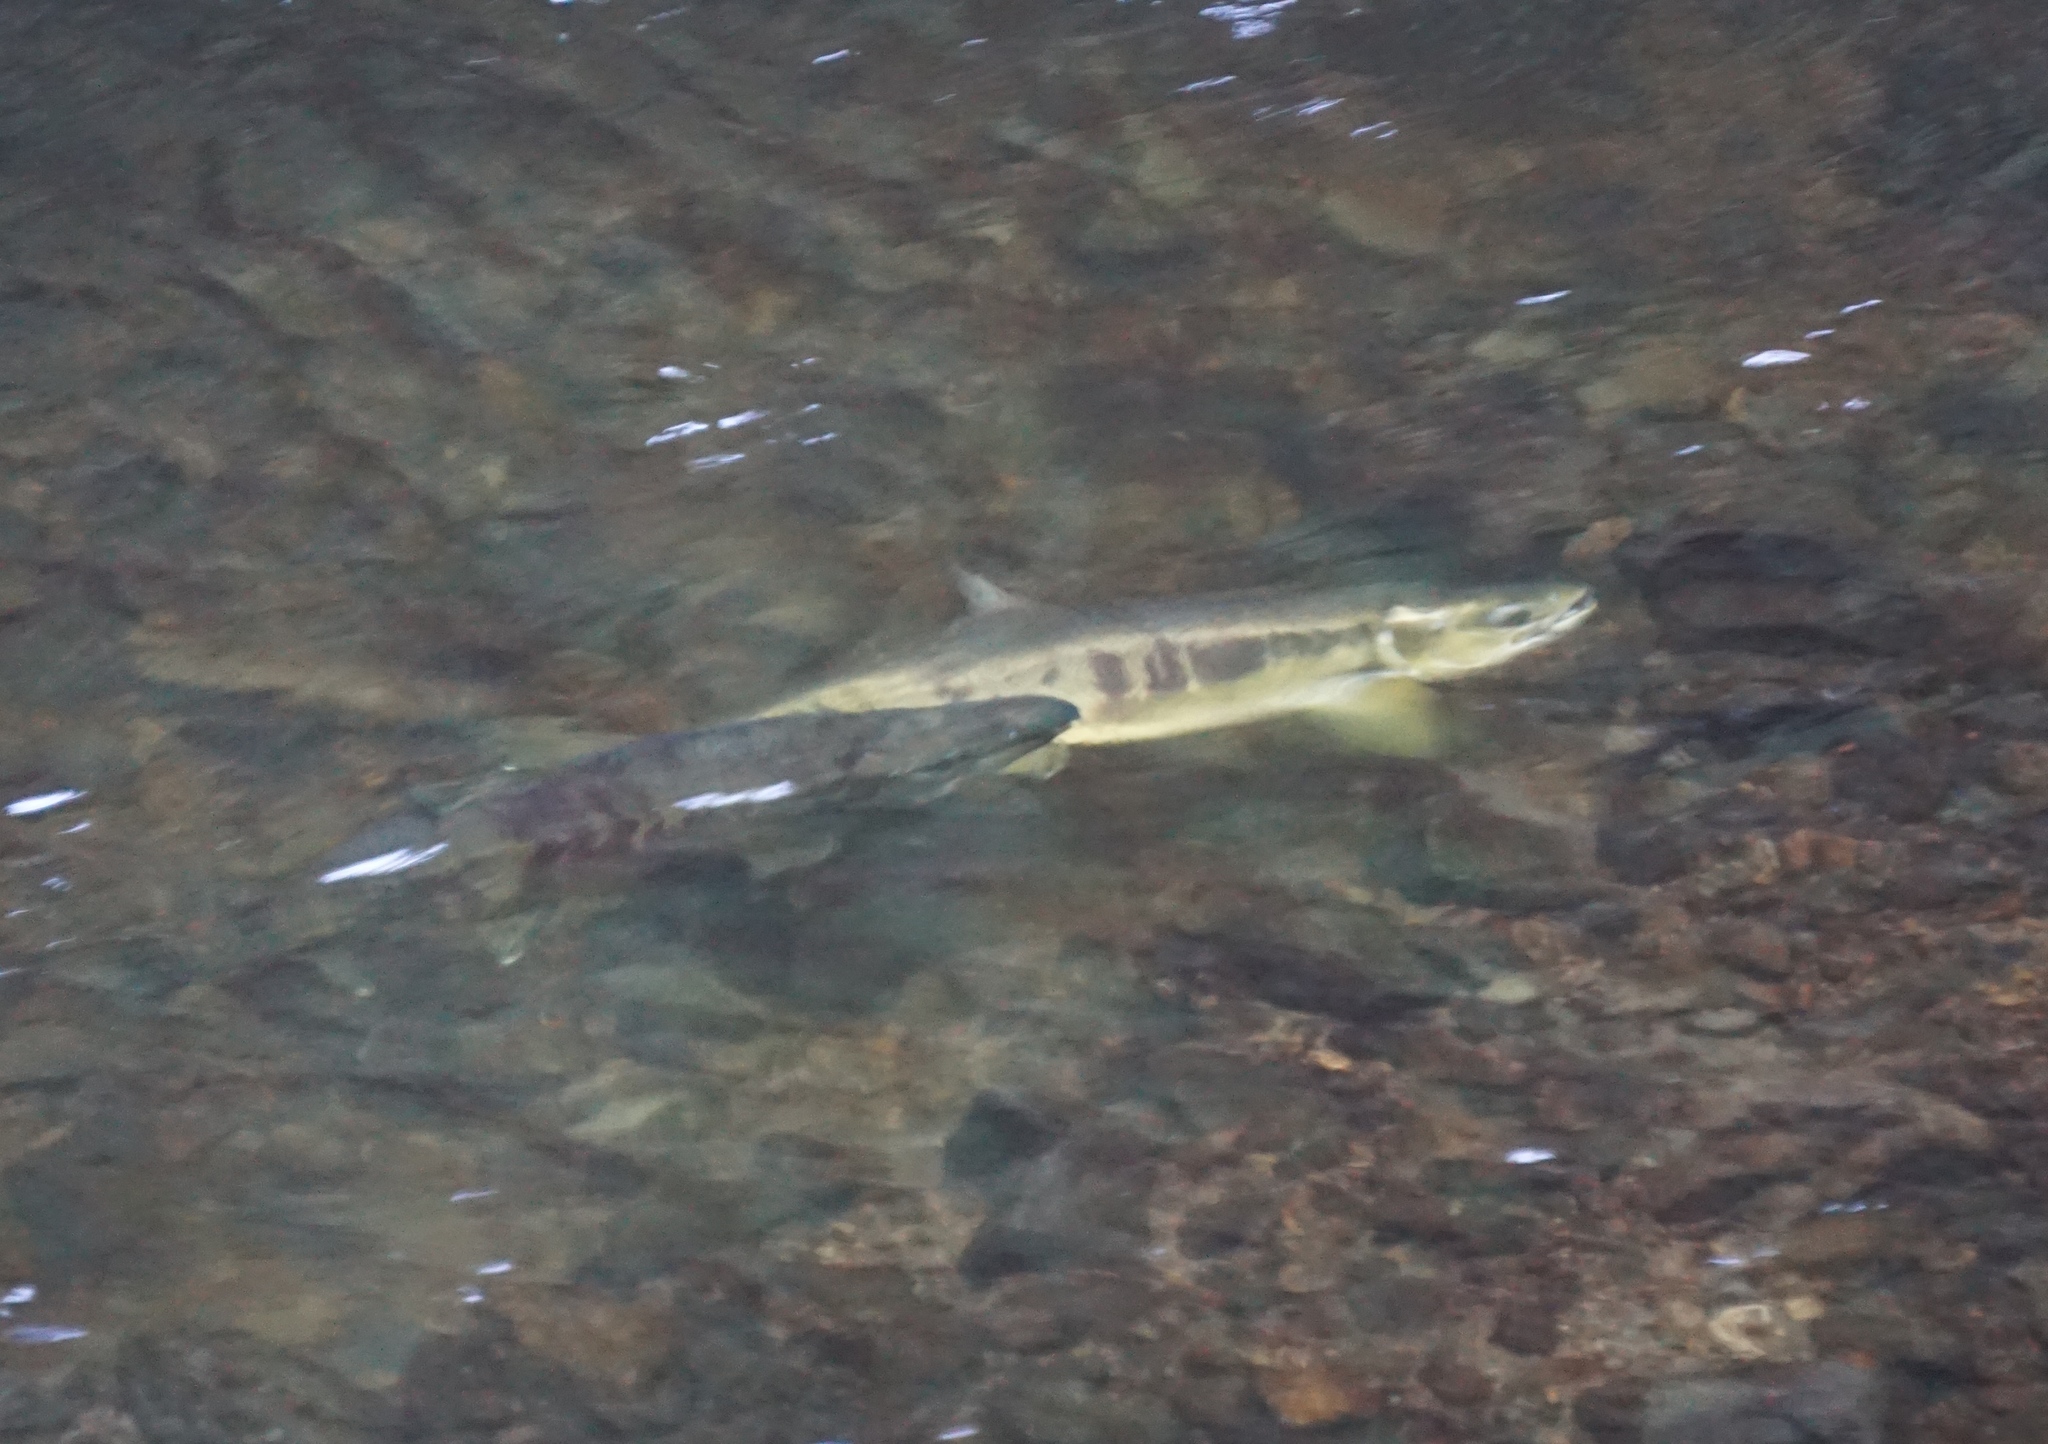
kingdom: Animalia
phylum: Chordata
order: Salmoniformes
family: Salmonidae
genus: Oncorhynchus
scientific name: Oncorhynchus keta
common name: Chum salmon
